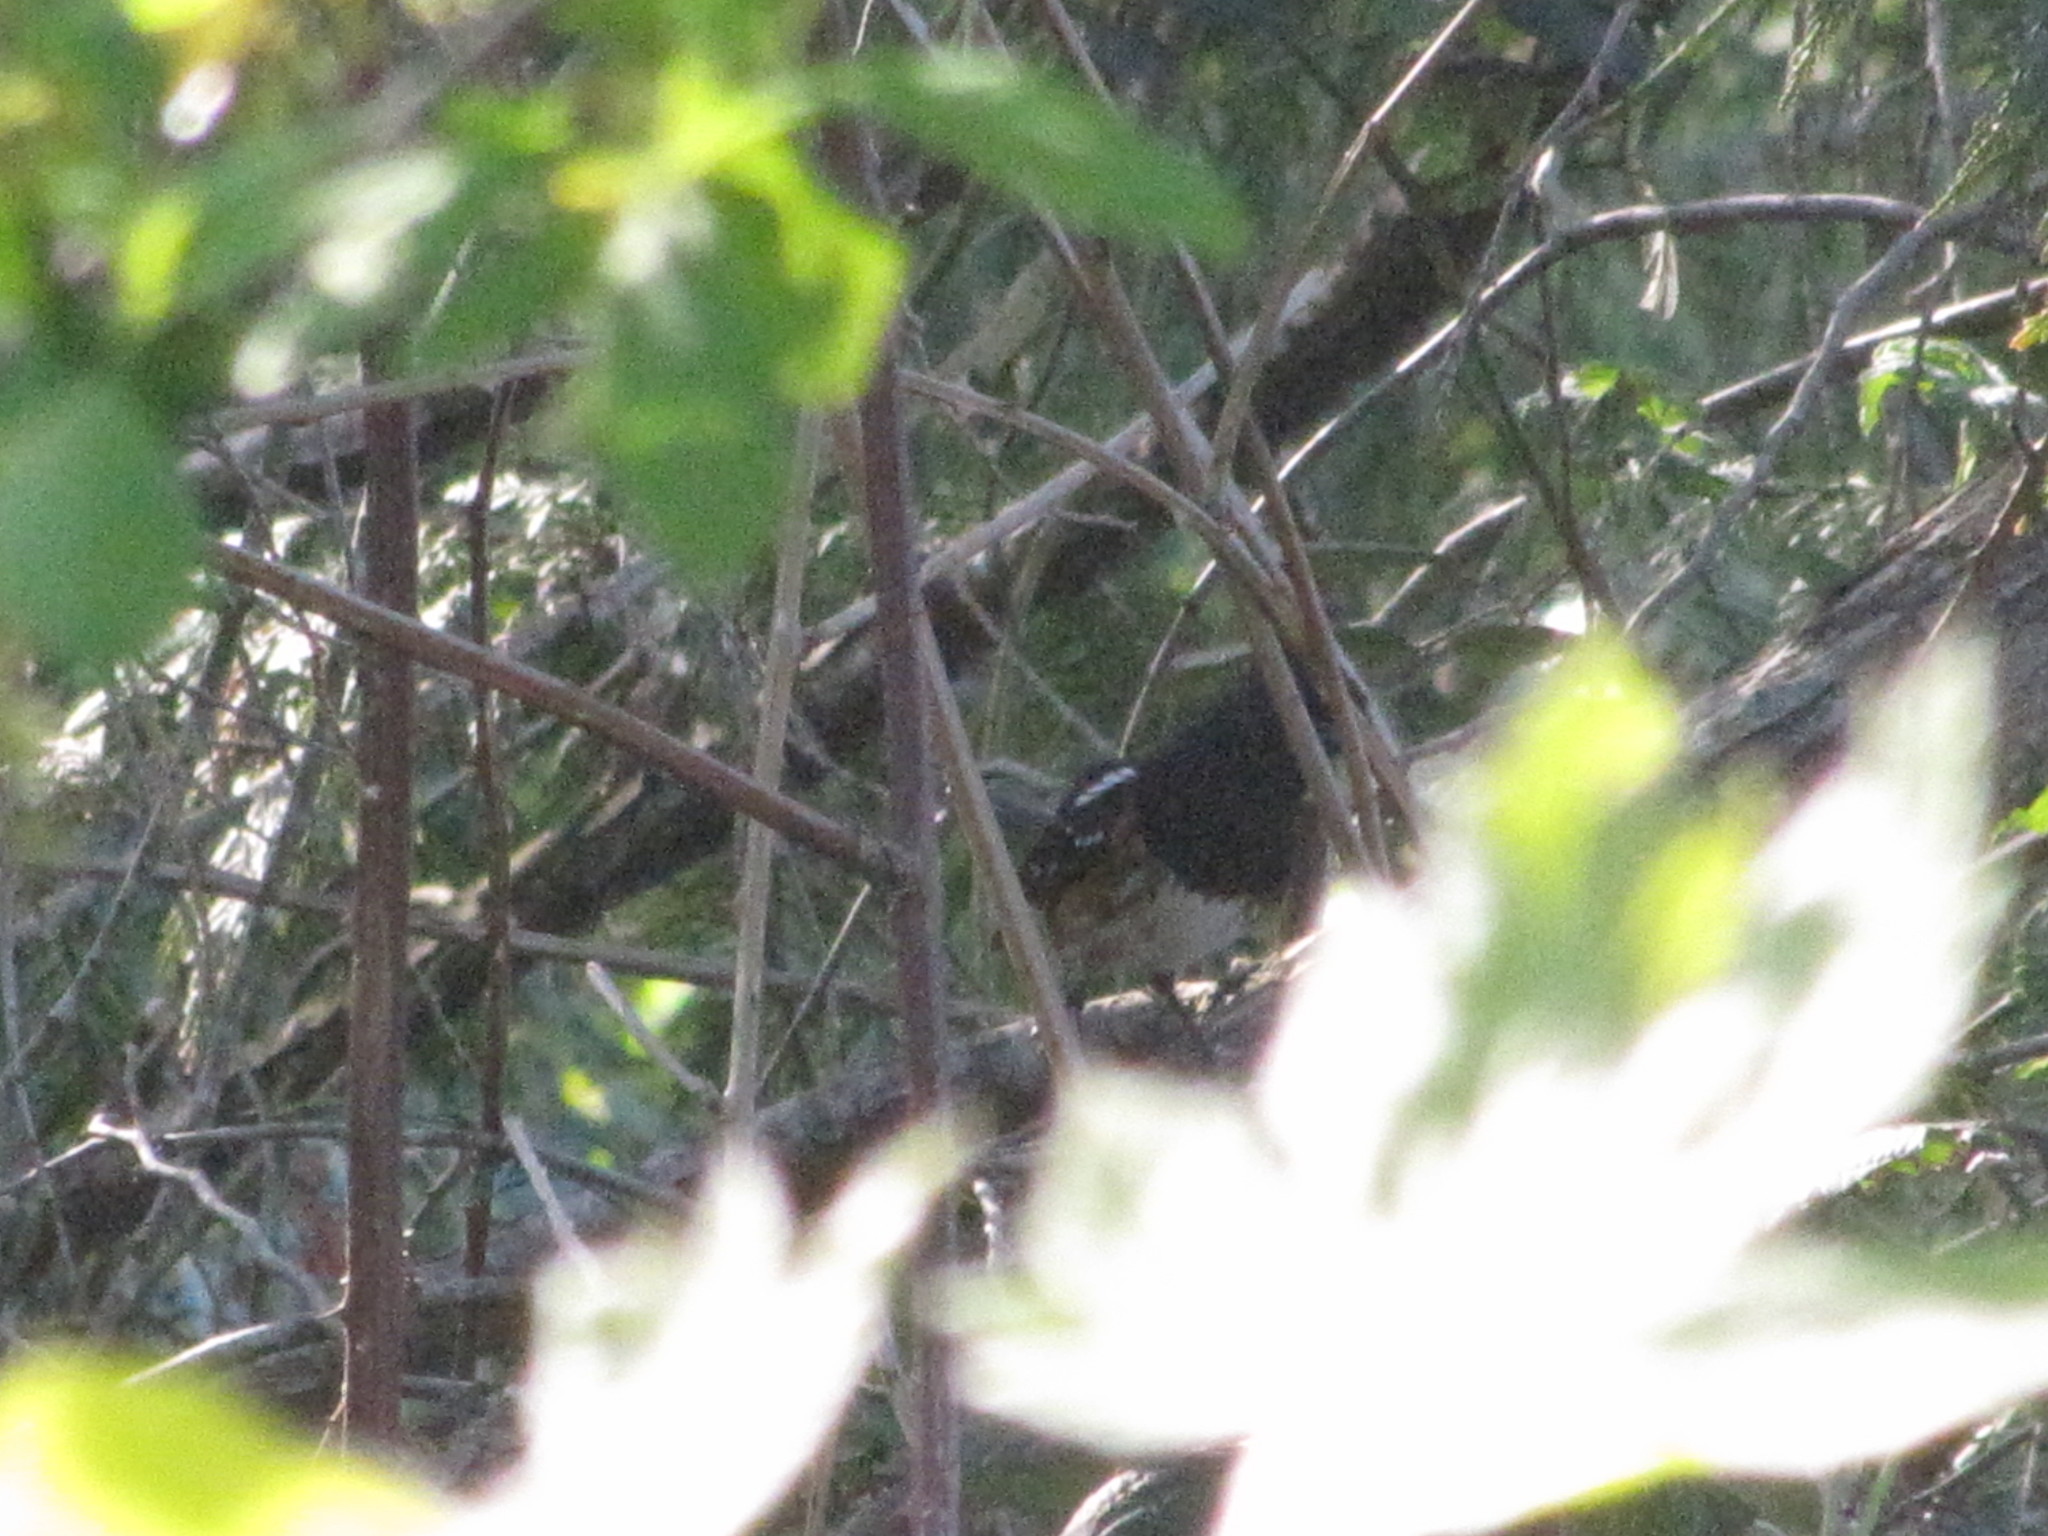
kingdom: Animalia
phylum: Chordata
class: Aves
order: Passeriformes
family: Passerellidae
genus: Pipilo
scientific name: Pipilo maculatus
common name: Spotted towhee
